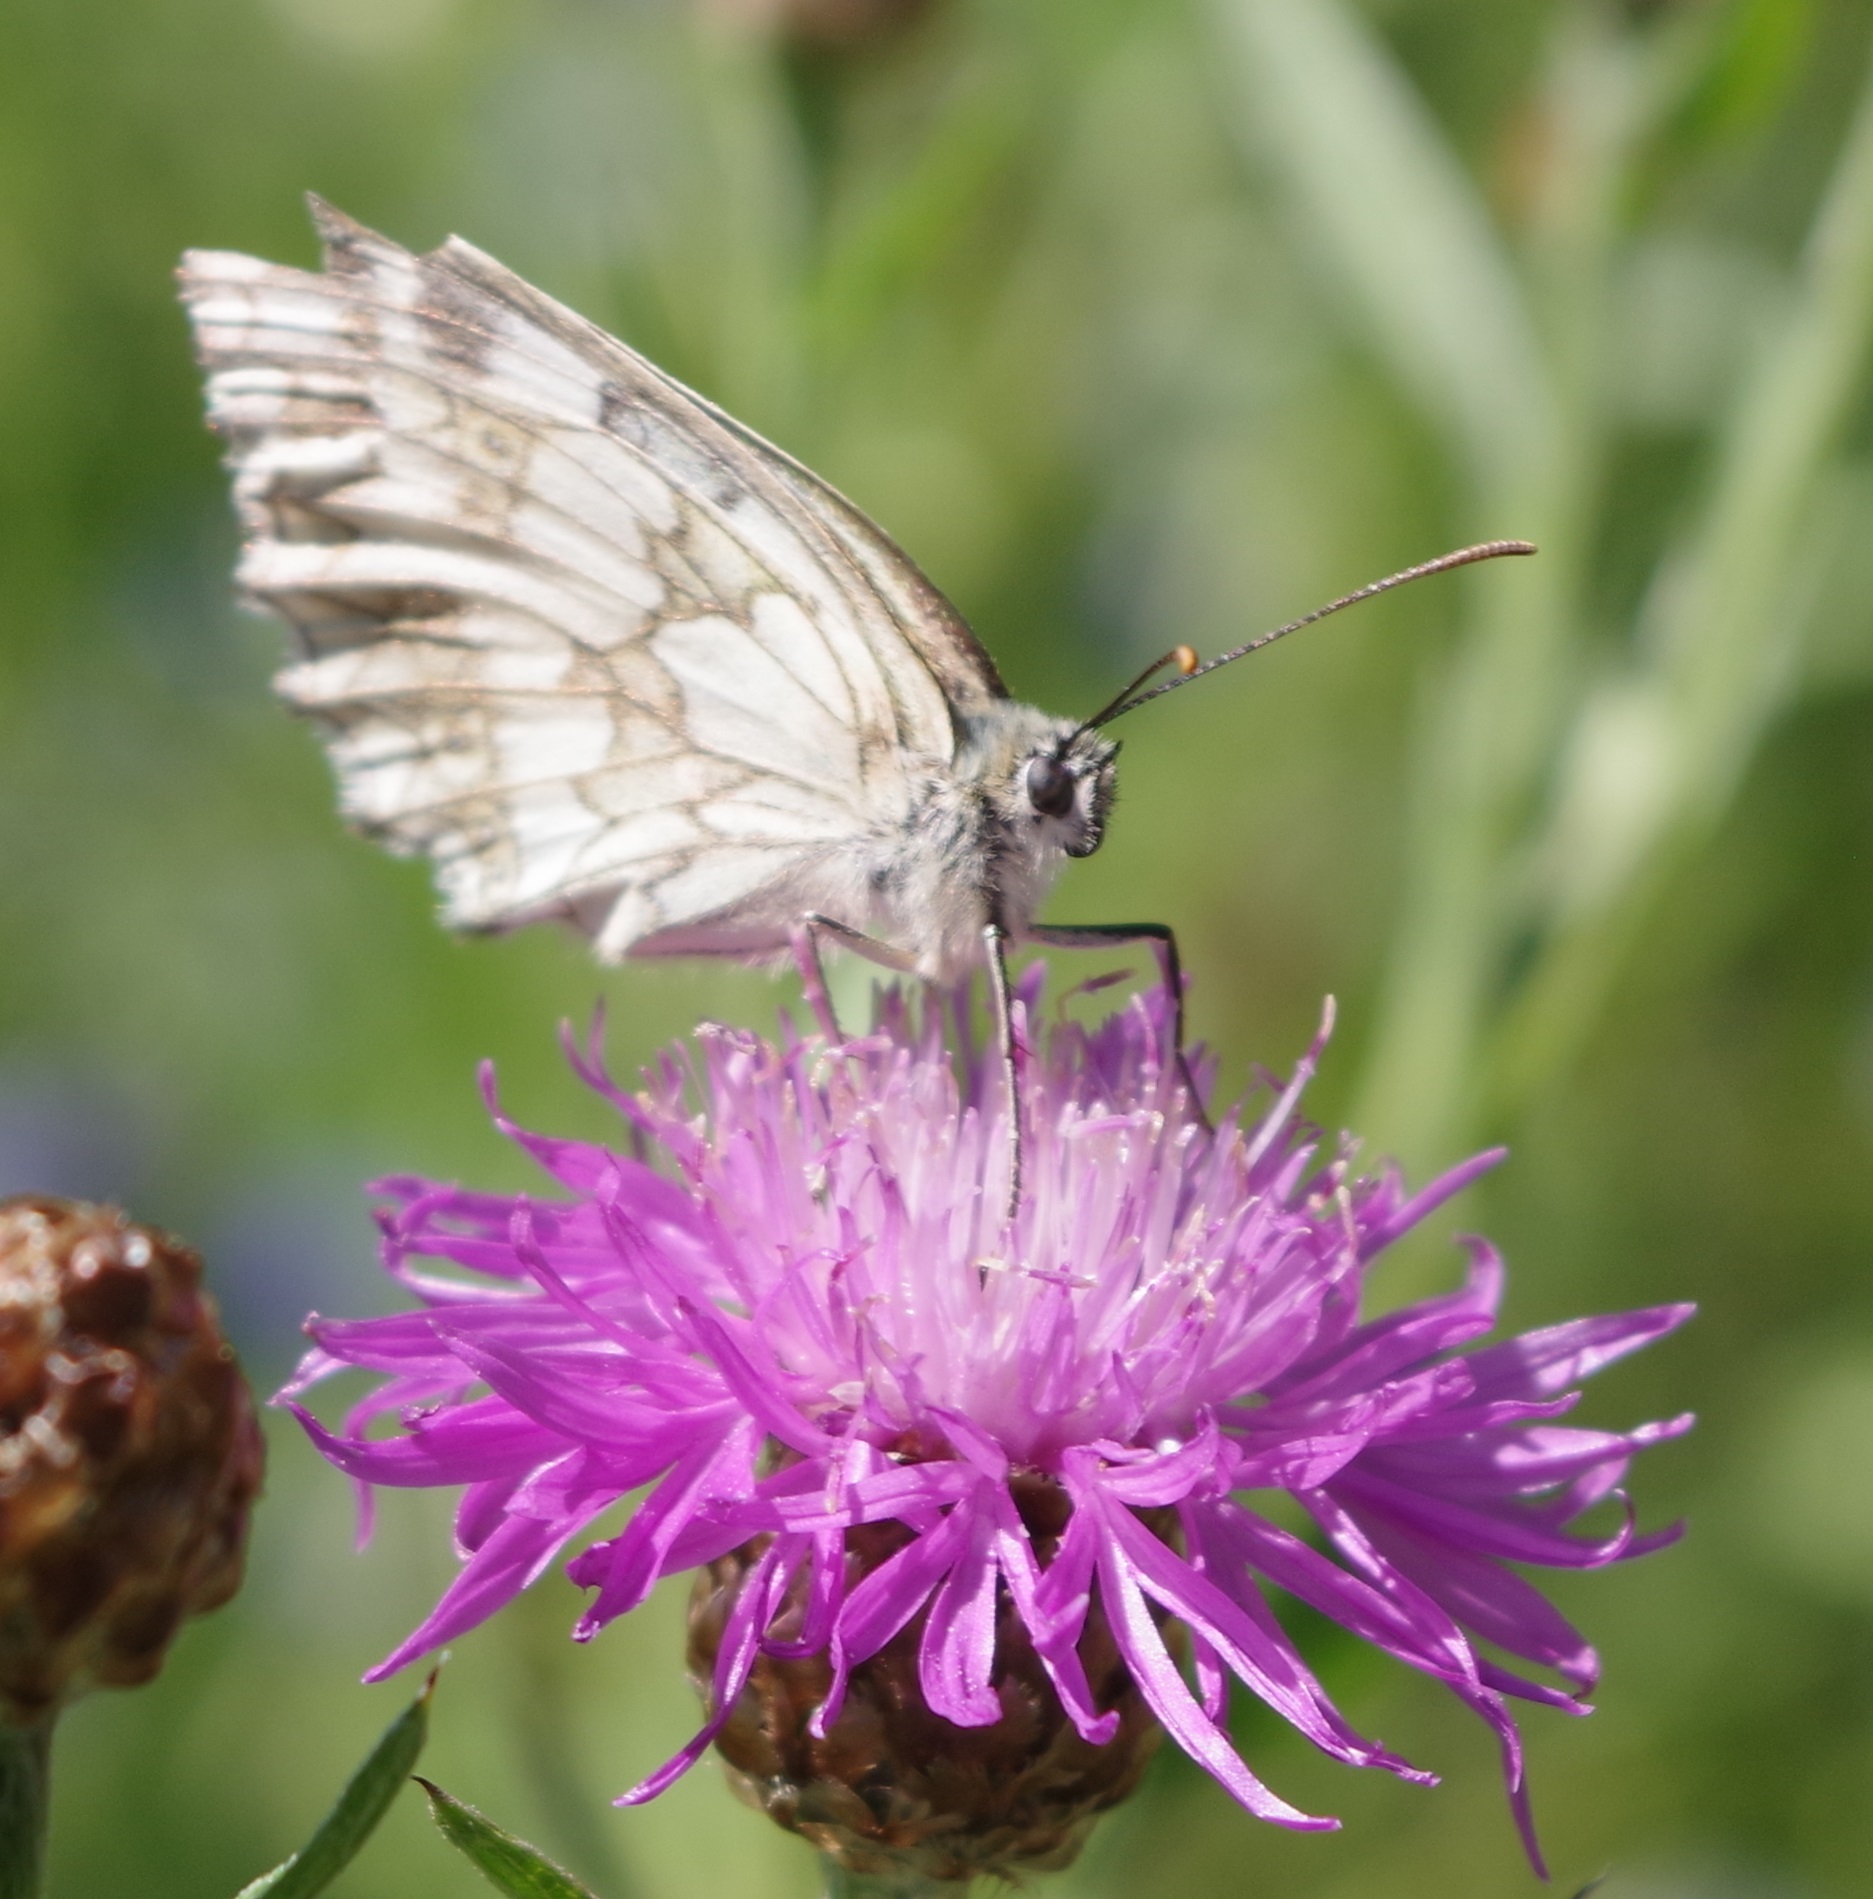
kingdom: Animalia
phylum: Arthropoda
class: Insecta
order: Lepidoptera
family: Nymphalidae
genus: Melanargia
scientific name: Melanargia galathea
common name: Marbled white
